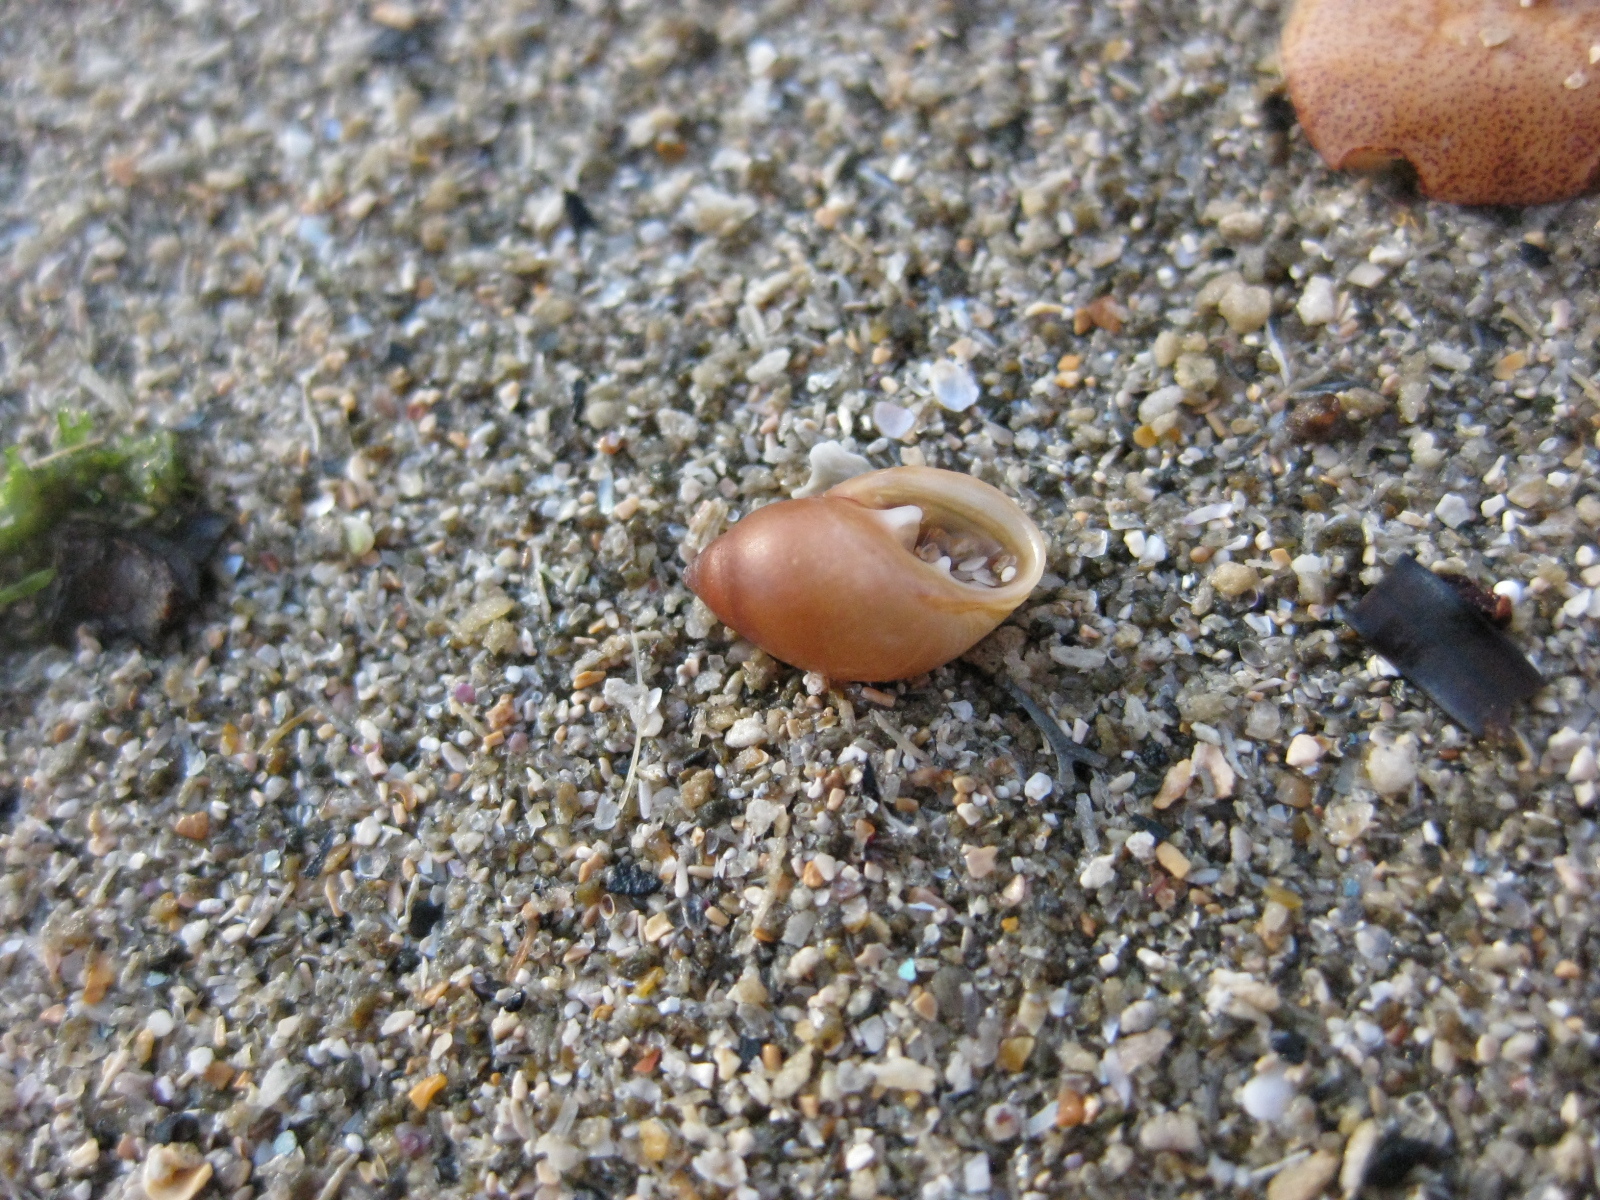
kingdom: Animalia
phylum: Mollusca
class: Gastropoda
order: Ellobiida
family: Ellobiidae
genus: Marinula
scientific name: Marinula filholi
